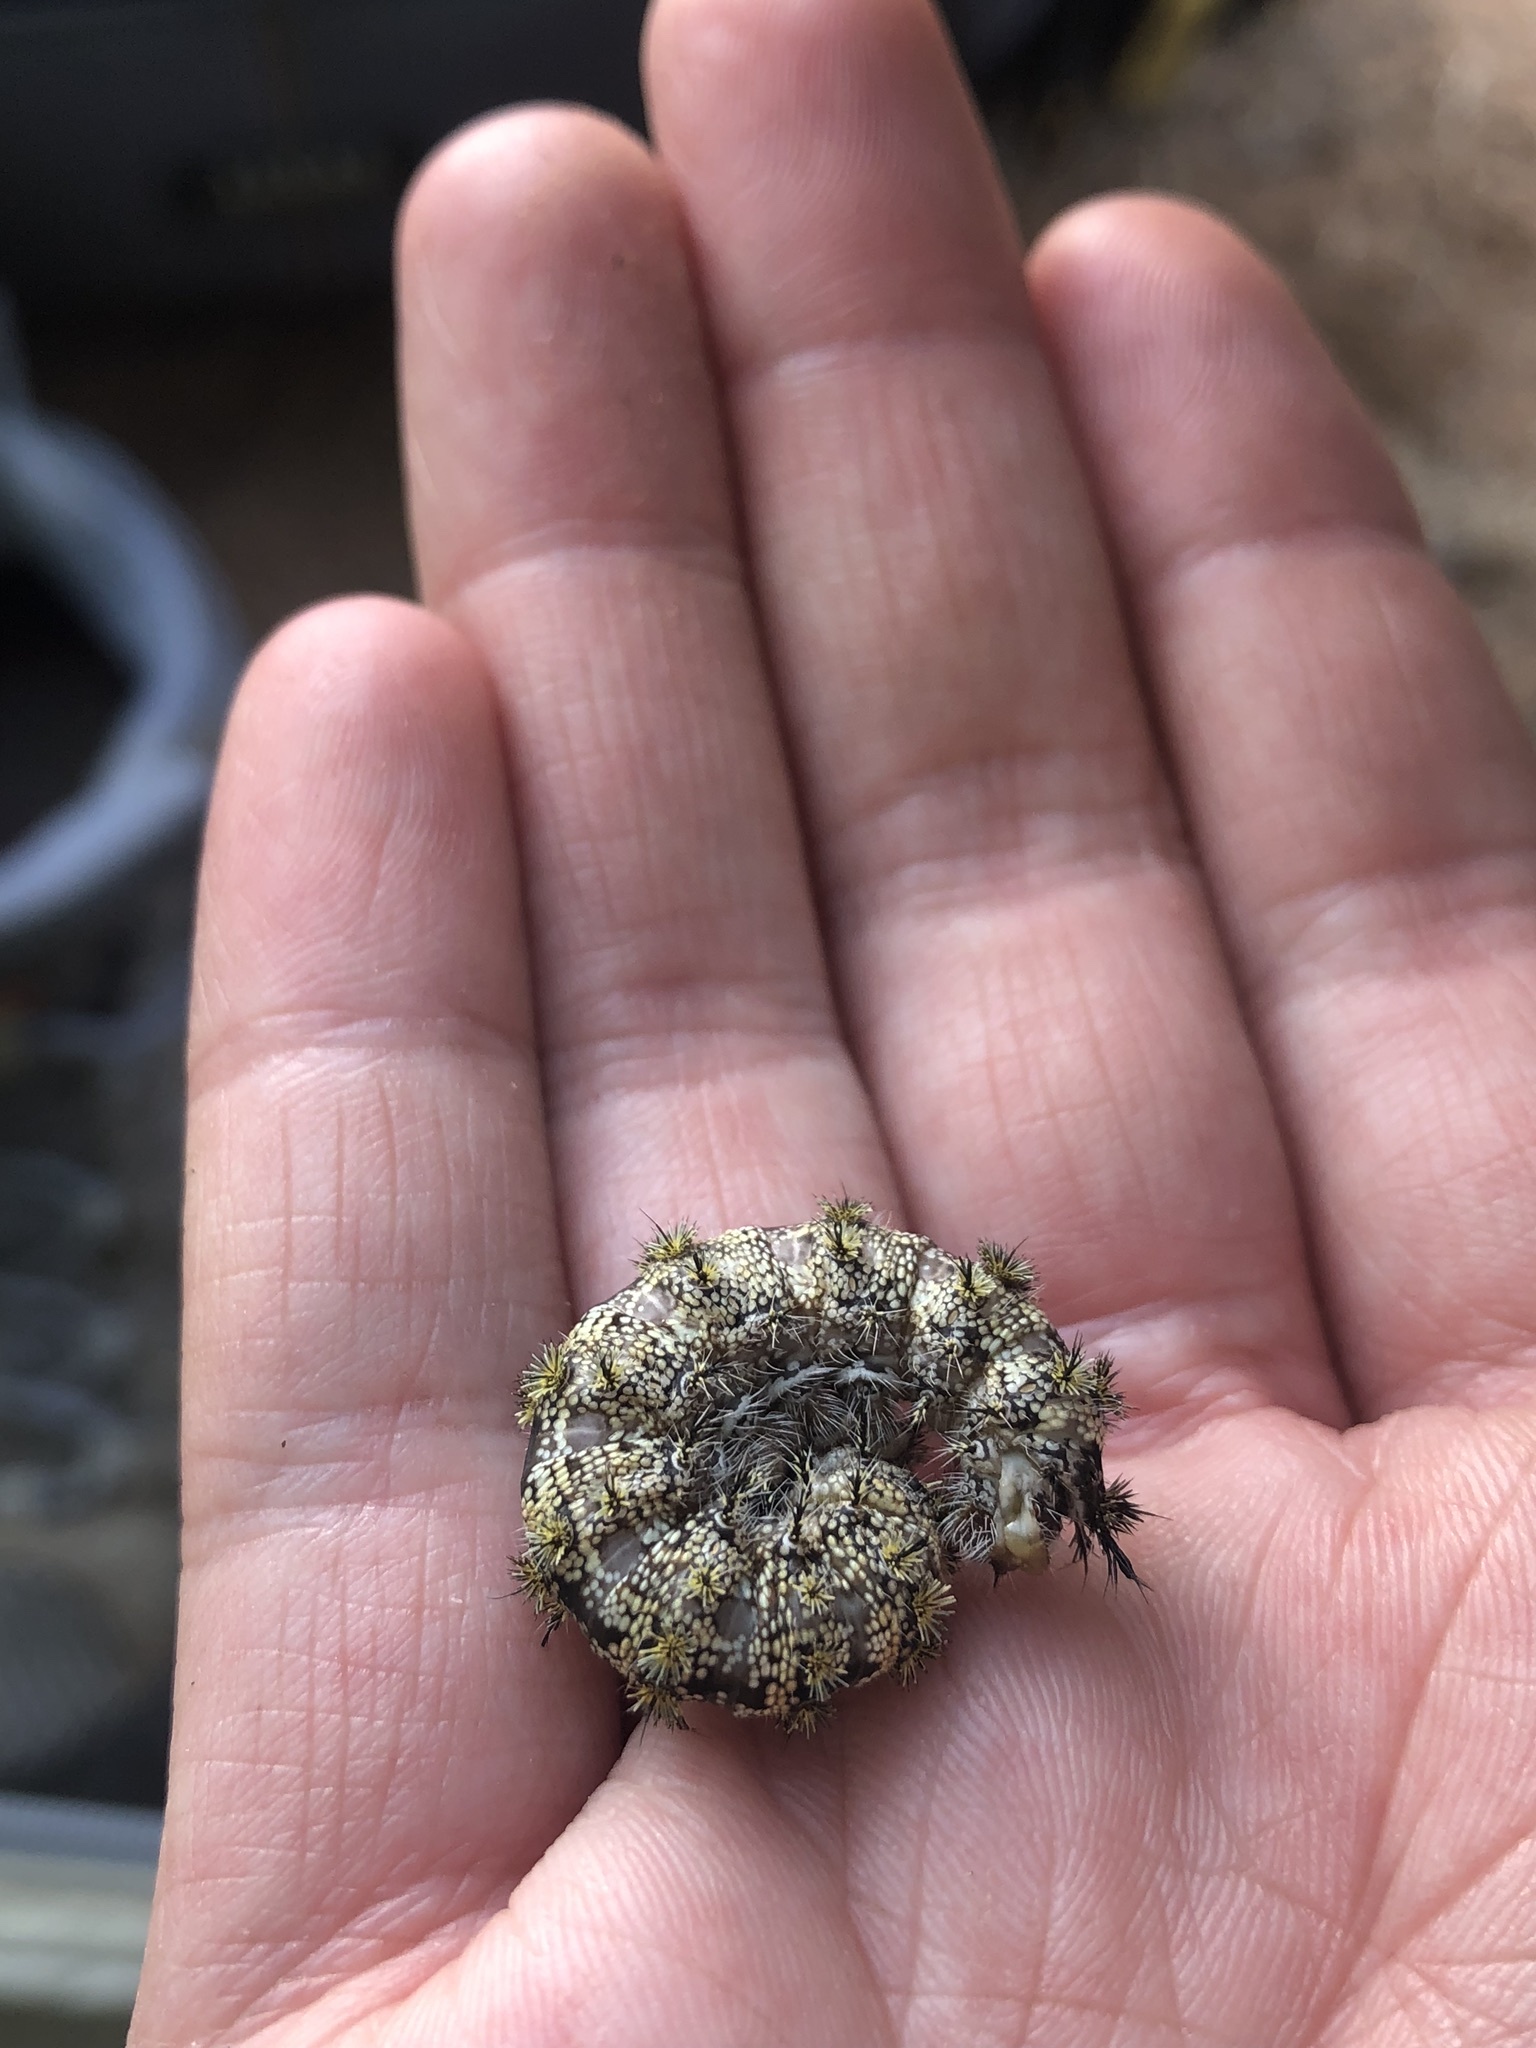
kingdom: Animalia
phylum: Arthropoda
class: Insecta
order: Lepidoptera
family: Saturniidae
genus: Hemileuca
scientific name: Hemileuca tricolor
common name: Tricolor buckmoth
